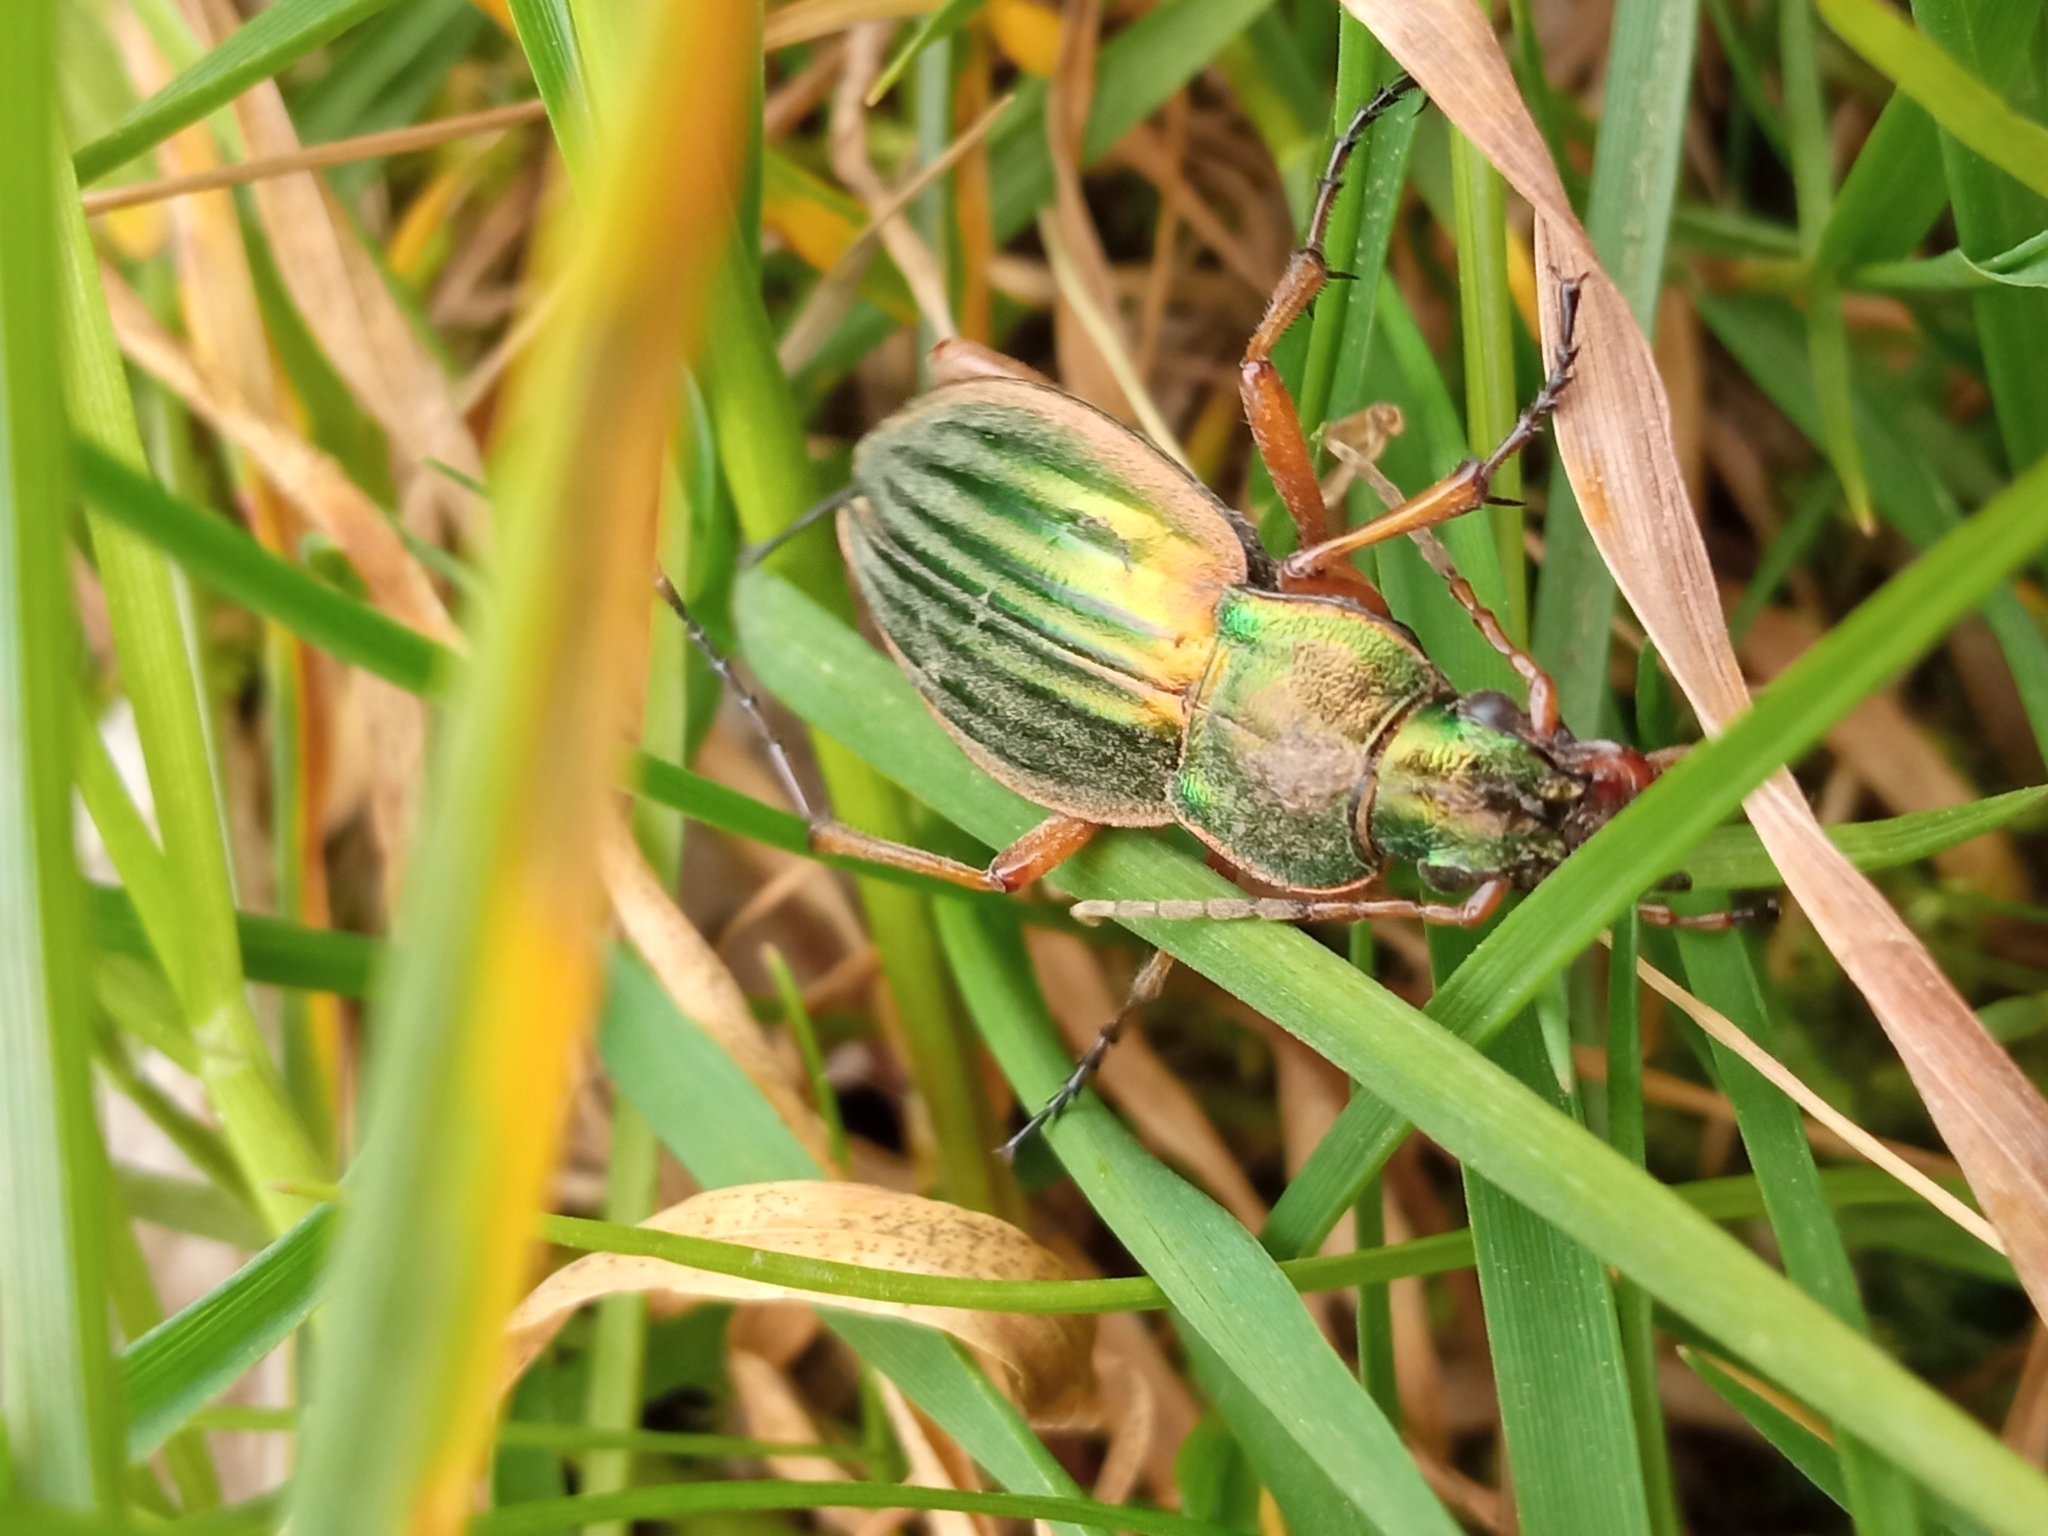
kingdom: Animalia
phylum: Arthropoda
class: Insecta
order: Coleoptera
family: Carabidae
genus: Carabus
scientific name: Carabus auratus
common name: Golden ground beetle
